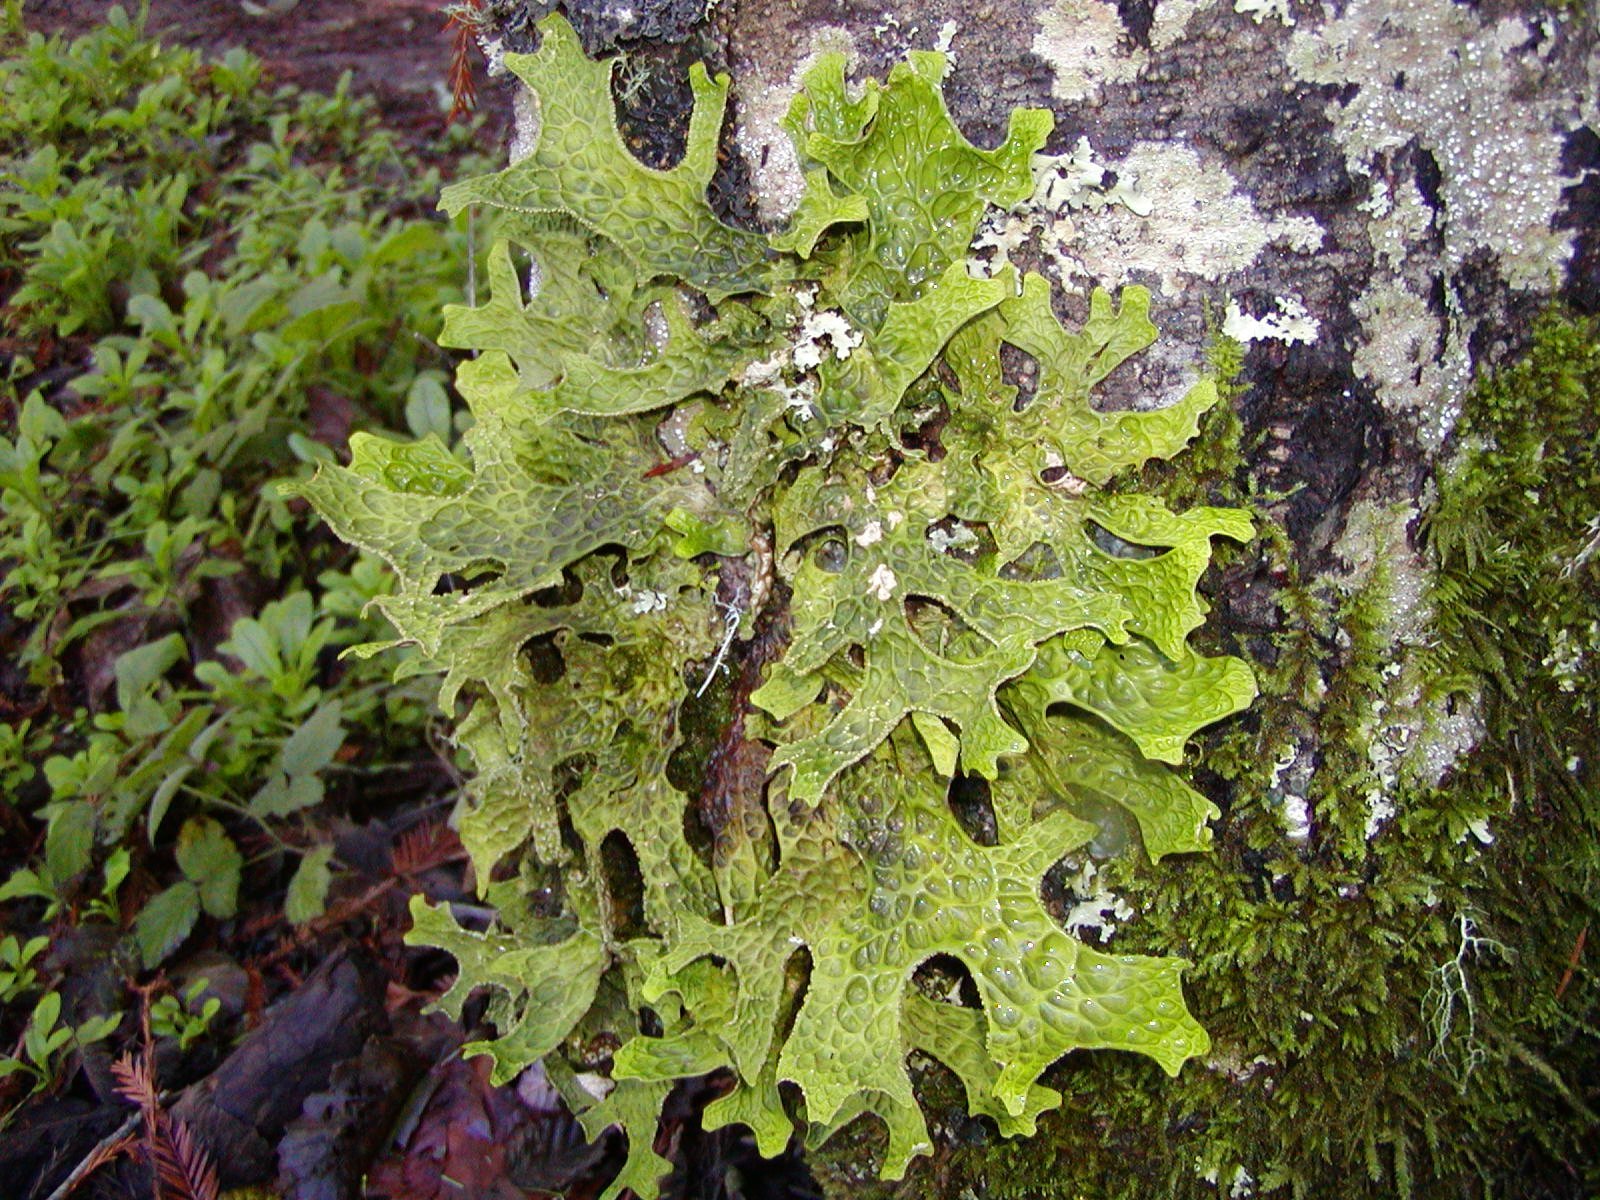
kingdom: Fungi
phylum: Ascomycota
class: Lecanoromycetes
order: Peltigerales
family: Lobariaceae
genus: Lobaria
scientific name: Lobaria pulmonaria
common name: Lungwort
